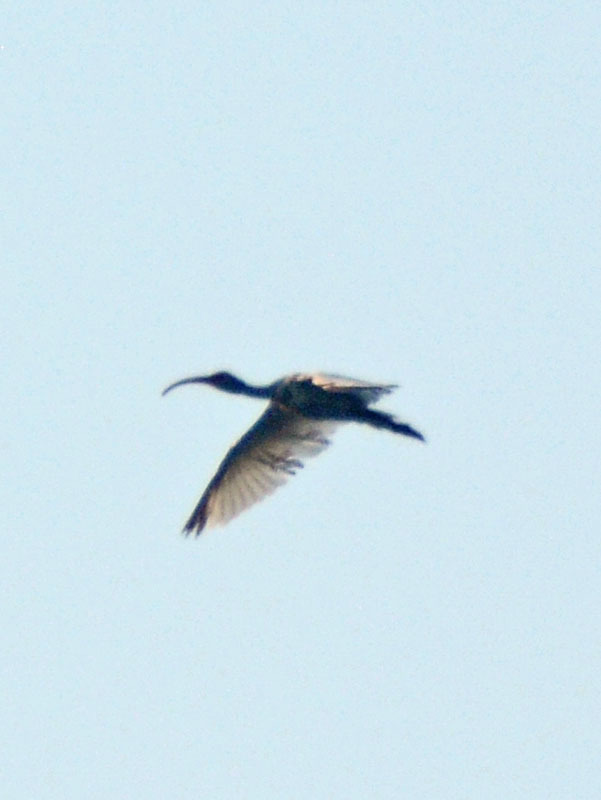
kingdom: Animalia
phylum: Chordata
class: Aves
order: Pelecaniformes
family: Threskiornithidae
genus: Eudocimus
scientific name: Eudocimus albus
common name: White ibis
